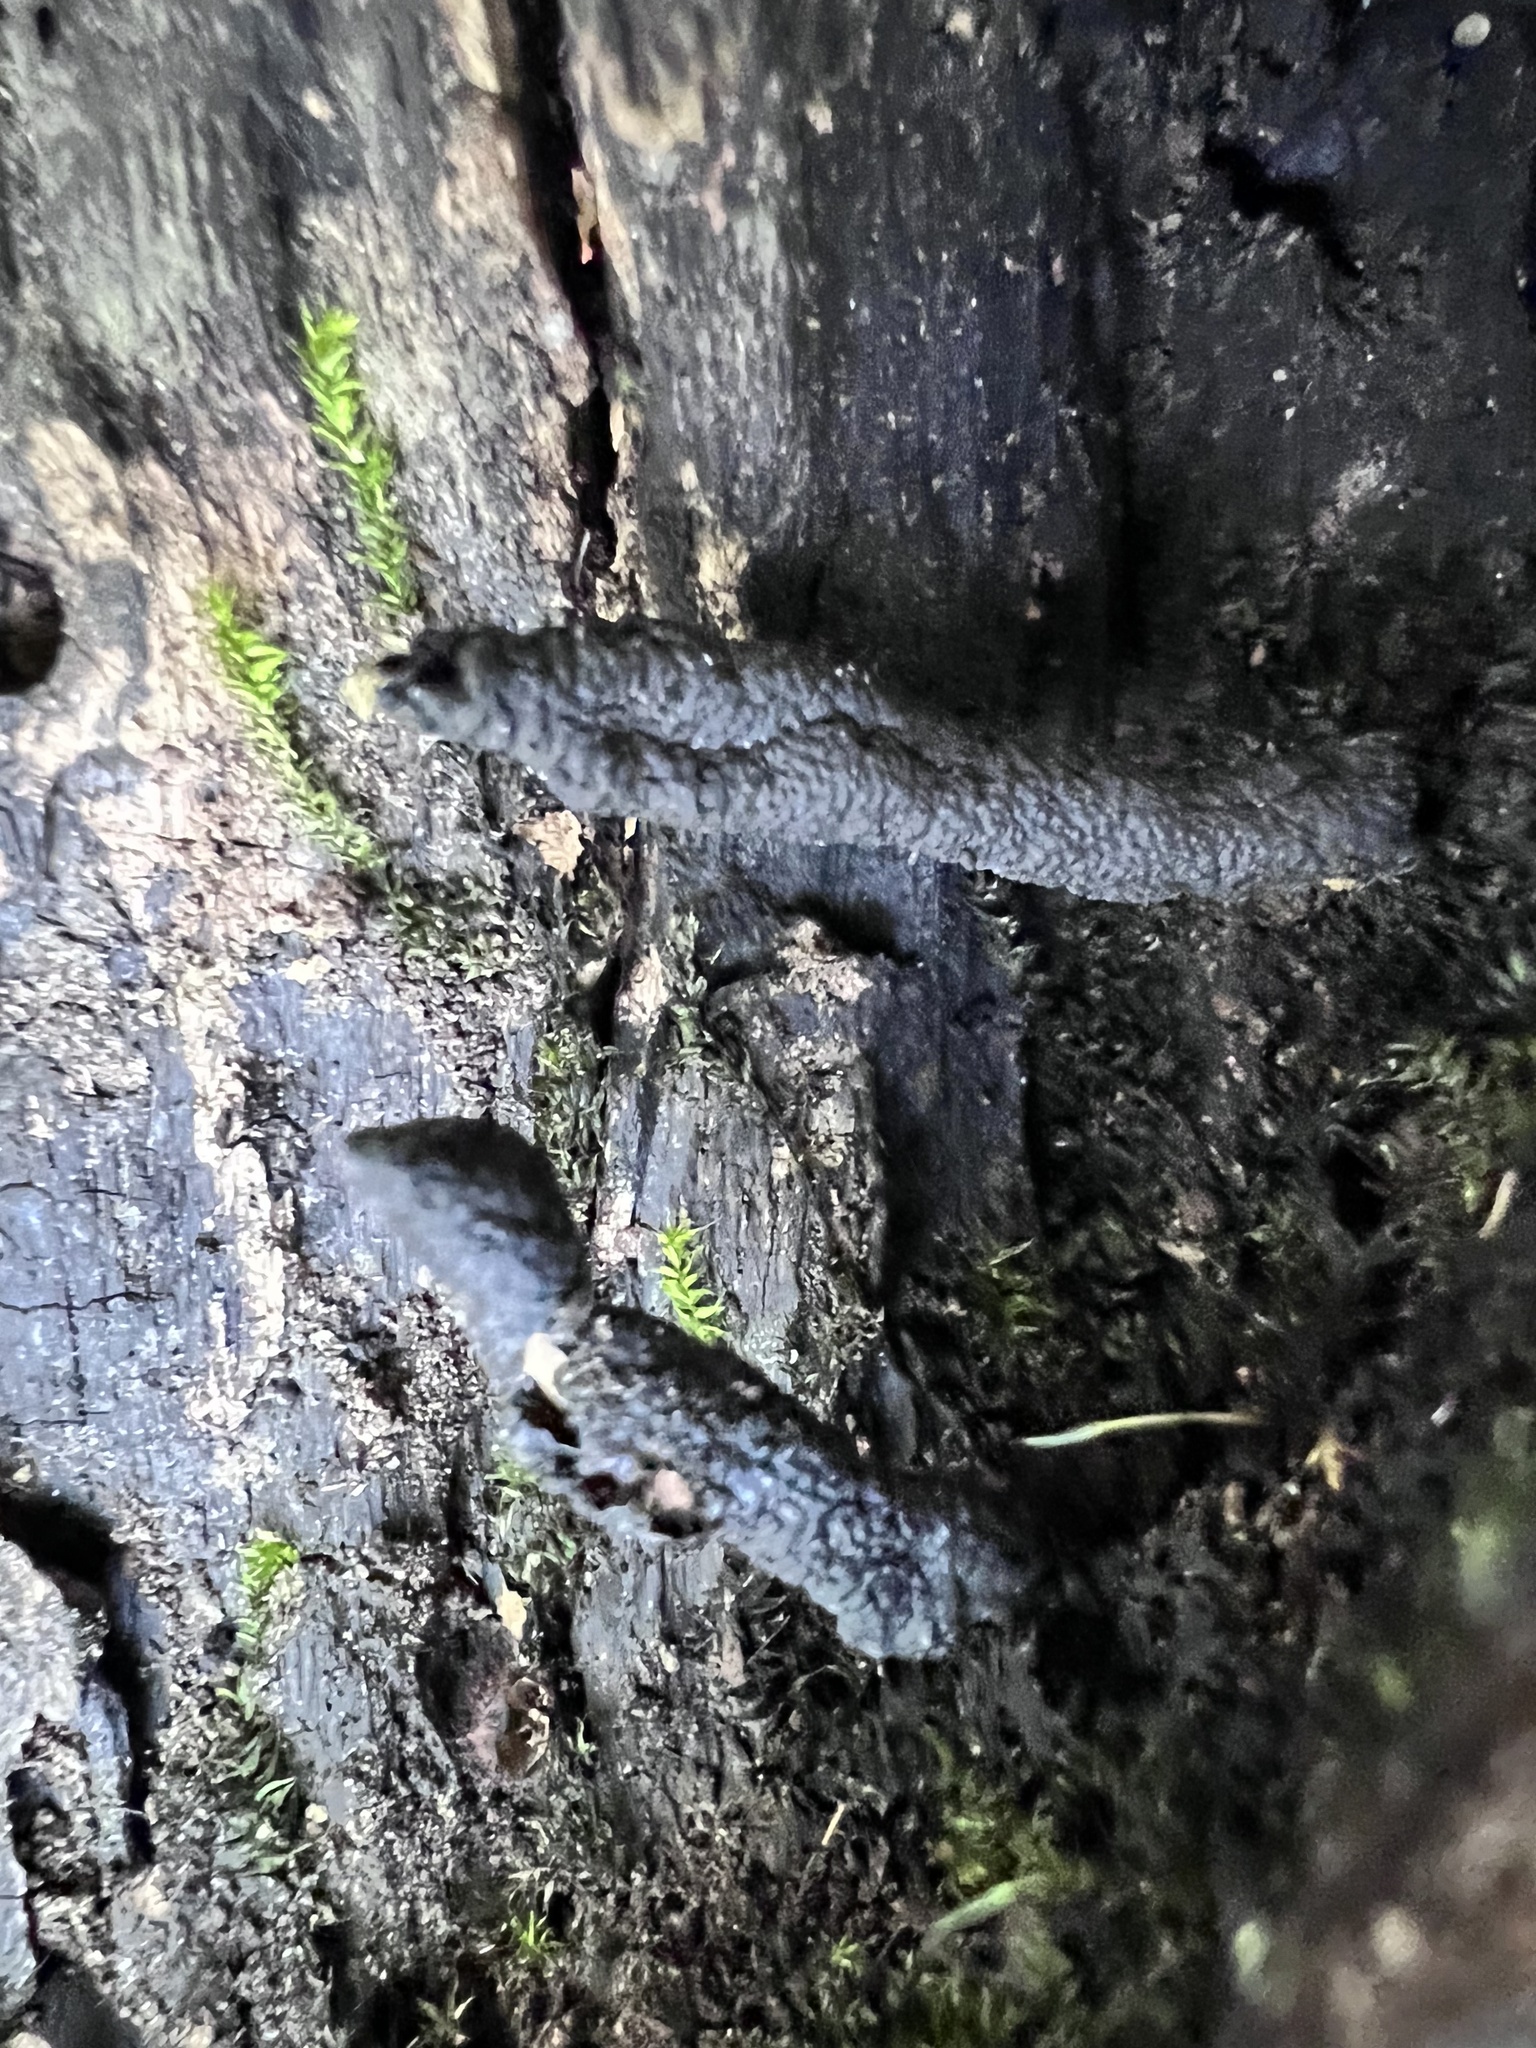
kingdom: Fungi
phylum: Ascomycota
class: Sordariomycetes
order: Xylariales
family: Xylariaceae
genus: Xylaria
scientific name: Xylaria polymorpha
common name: Dead man's fingers
